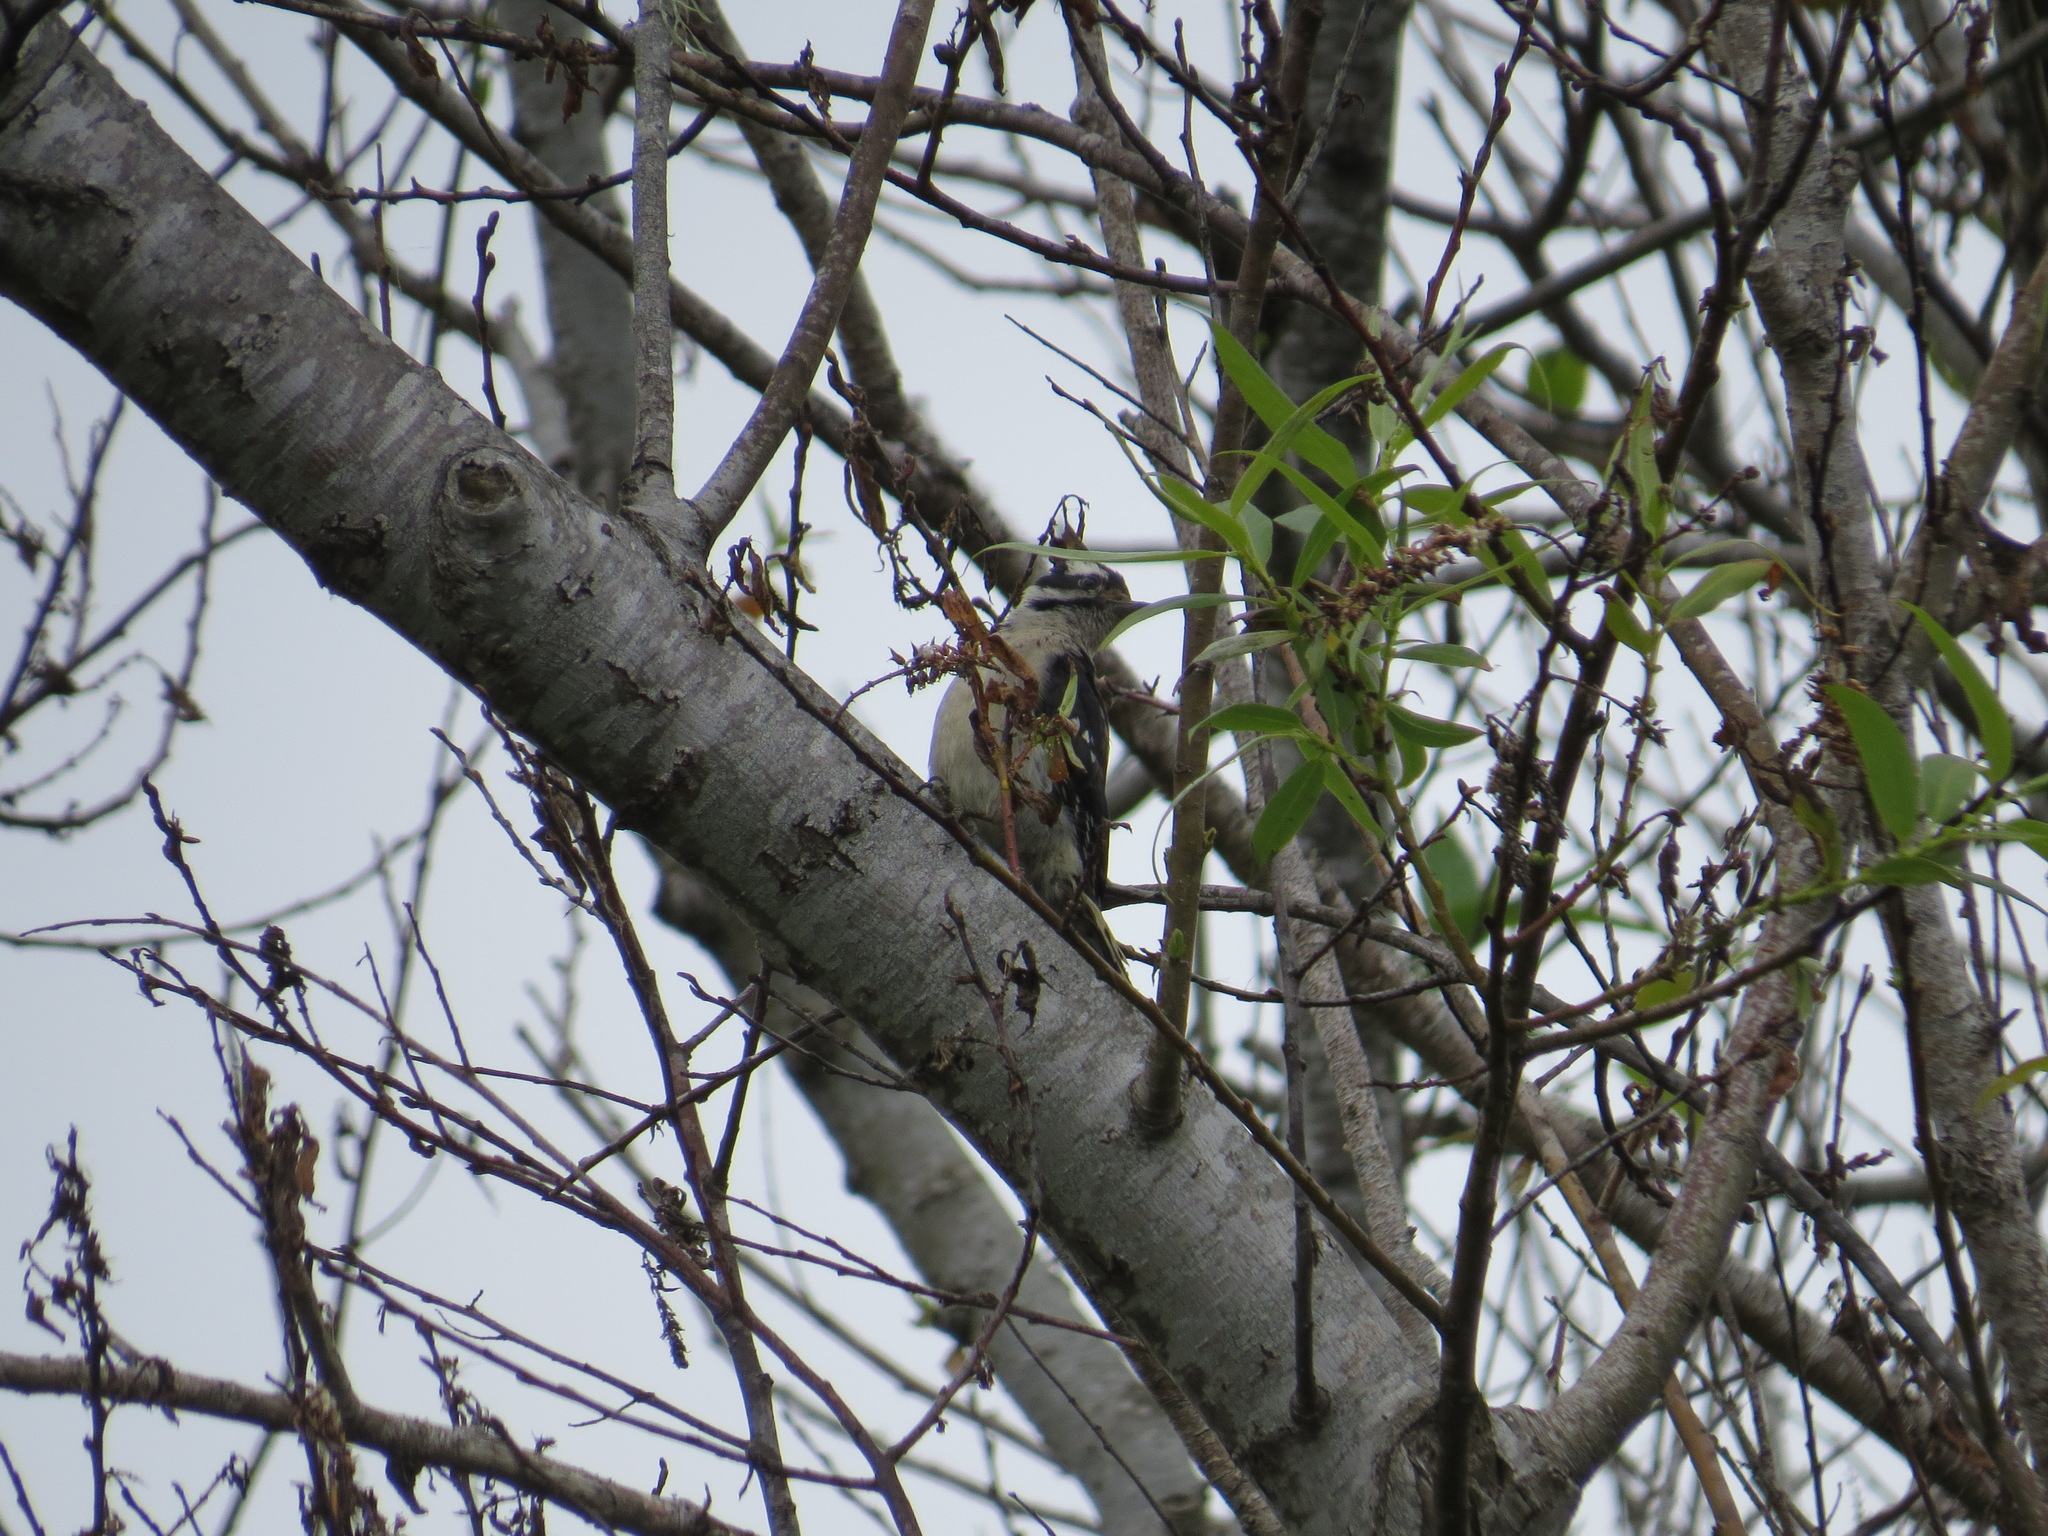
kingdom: Animalia
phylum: Chordata
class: Aves
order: Piciformes
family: Picidae
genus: Dryobates
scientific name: Dryobates pubescens
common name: Downy woodpecker
